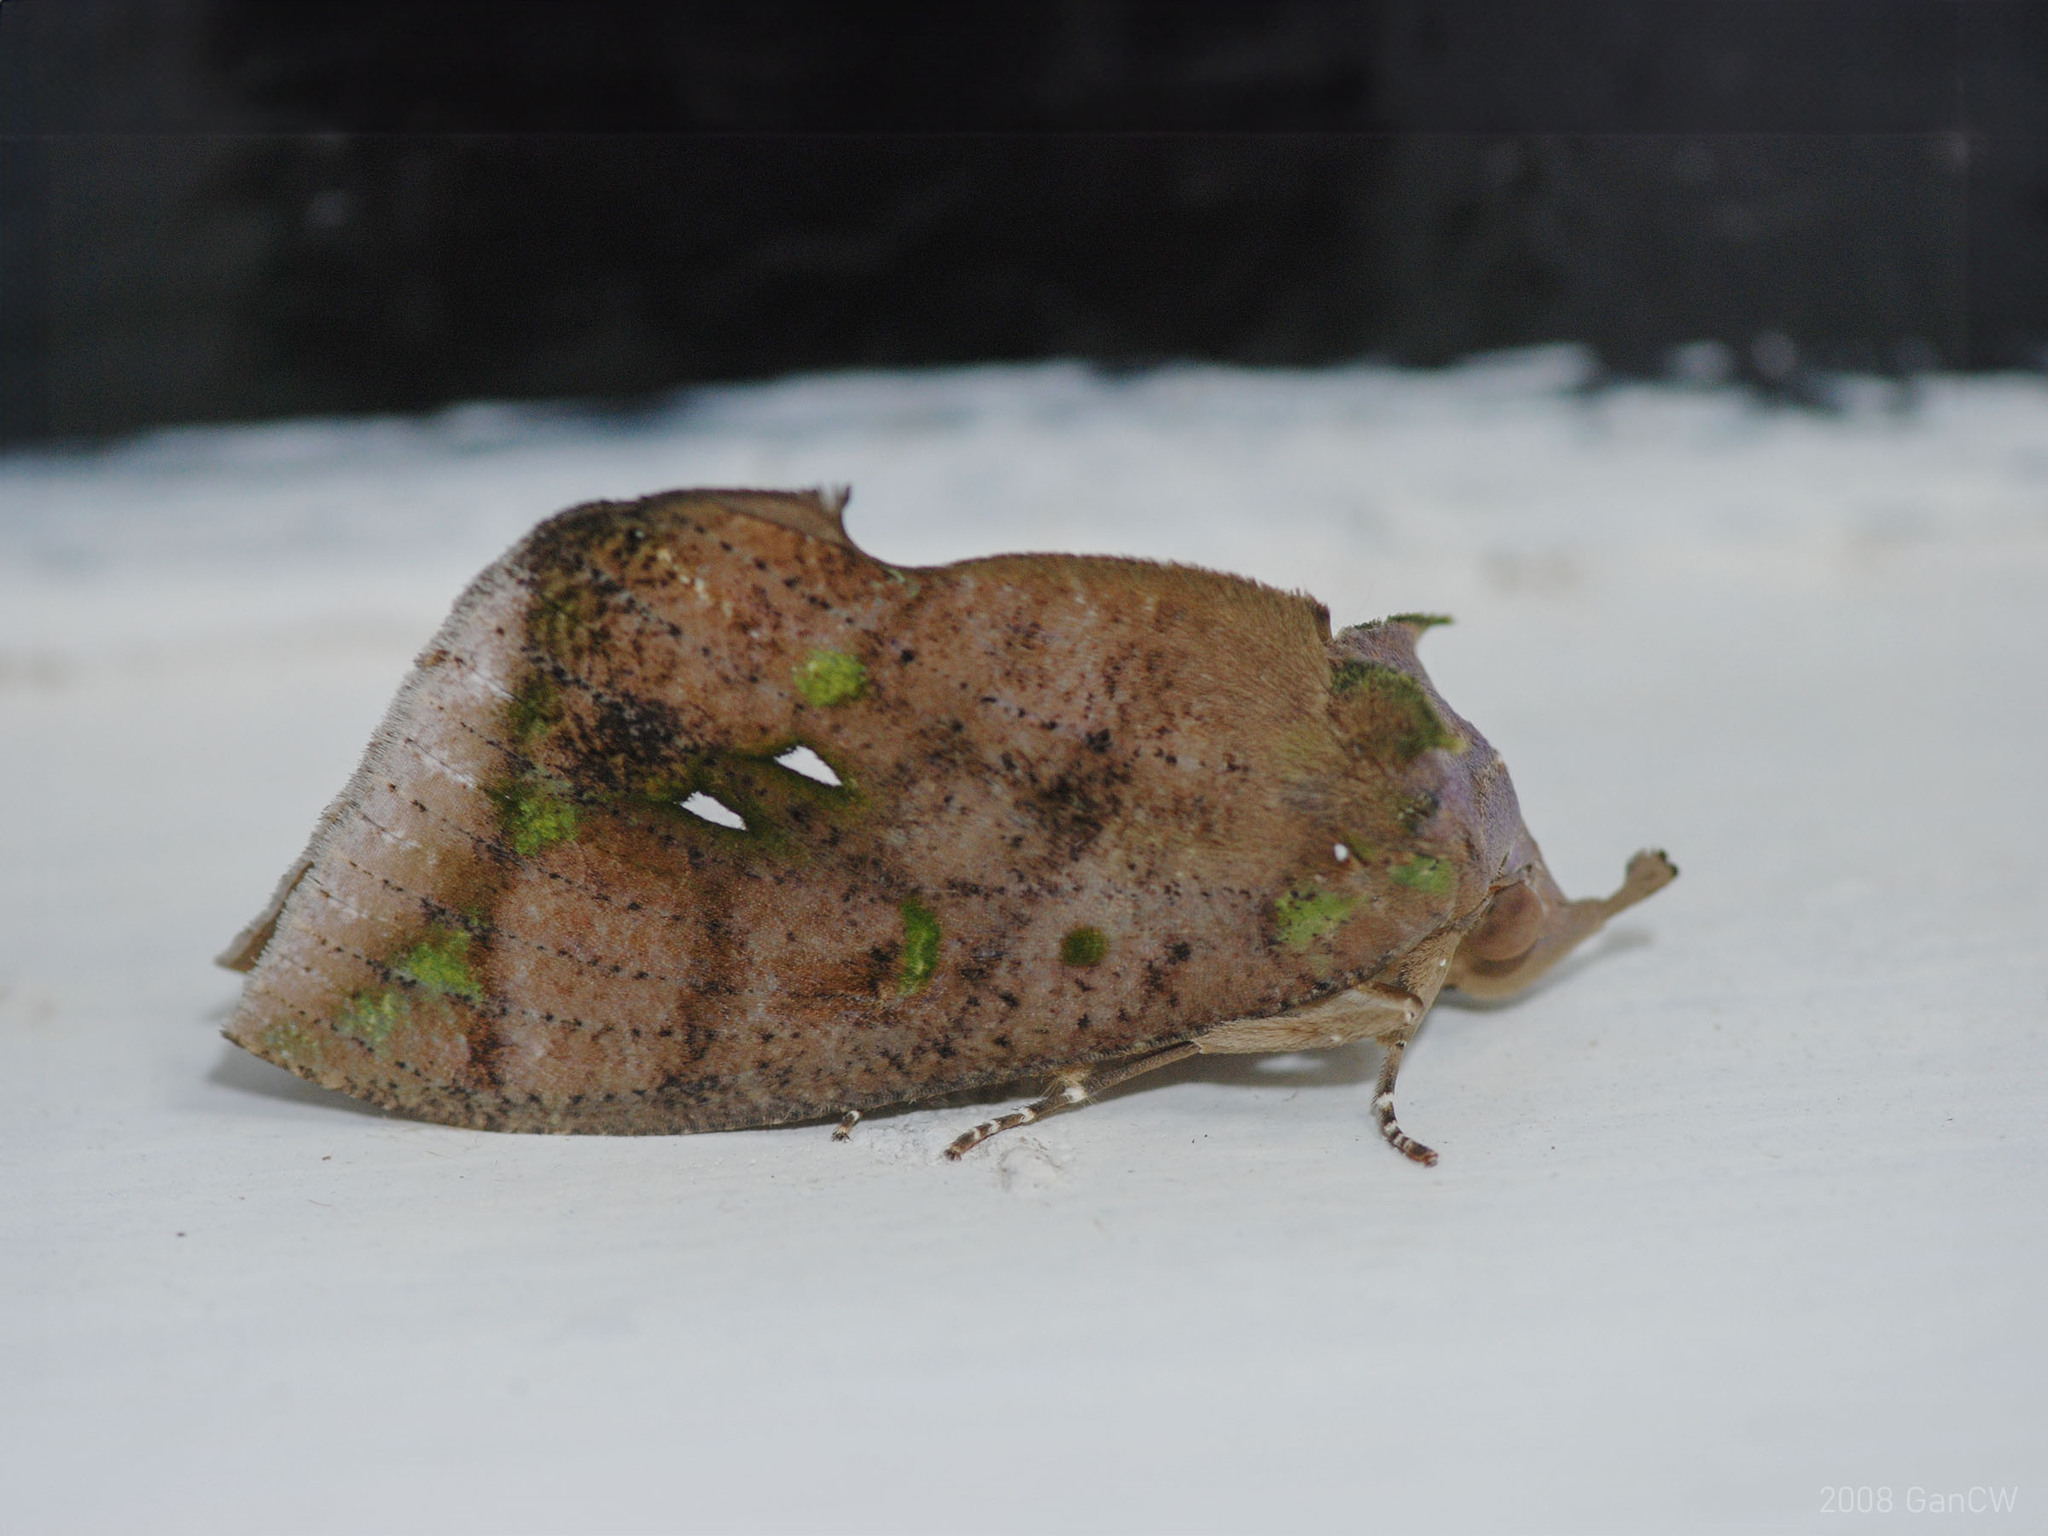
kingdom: Animalia
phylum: Arthropoda
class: Insecta
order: Lepidoptera
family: Erebidae
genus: Eudocima
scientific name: Eudocima discrepans
